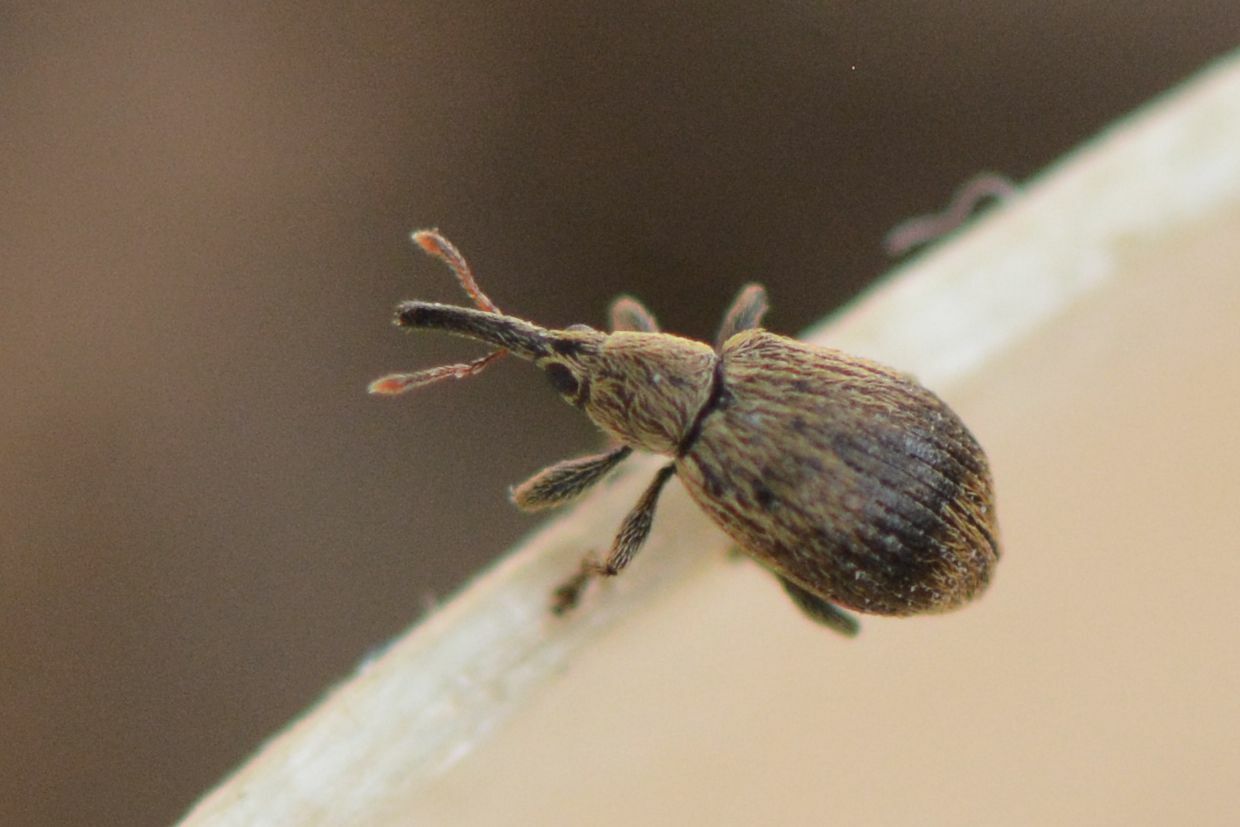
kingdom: Animalia
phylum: Arthropoda
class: Insecta
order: Coleoptera
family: Apionidae
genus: Trichopterapion
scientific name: Trichopterapion holosericeum
